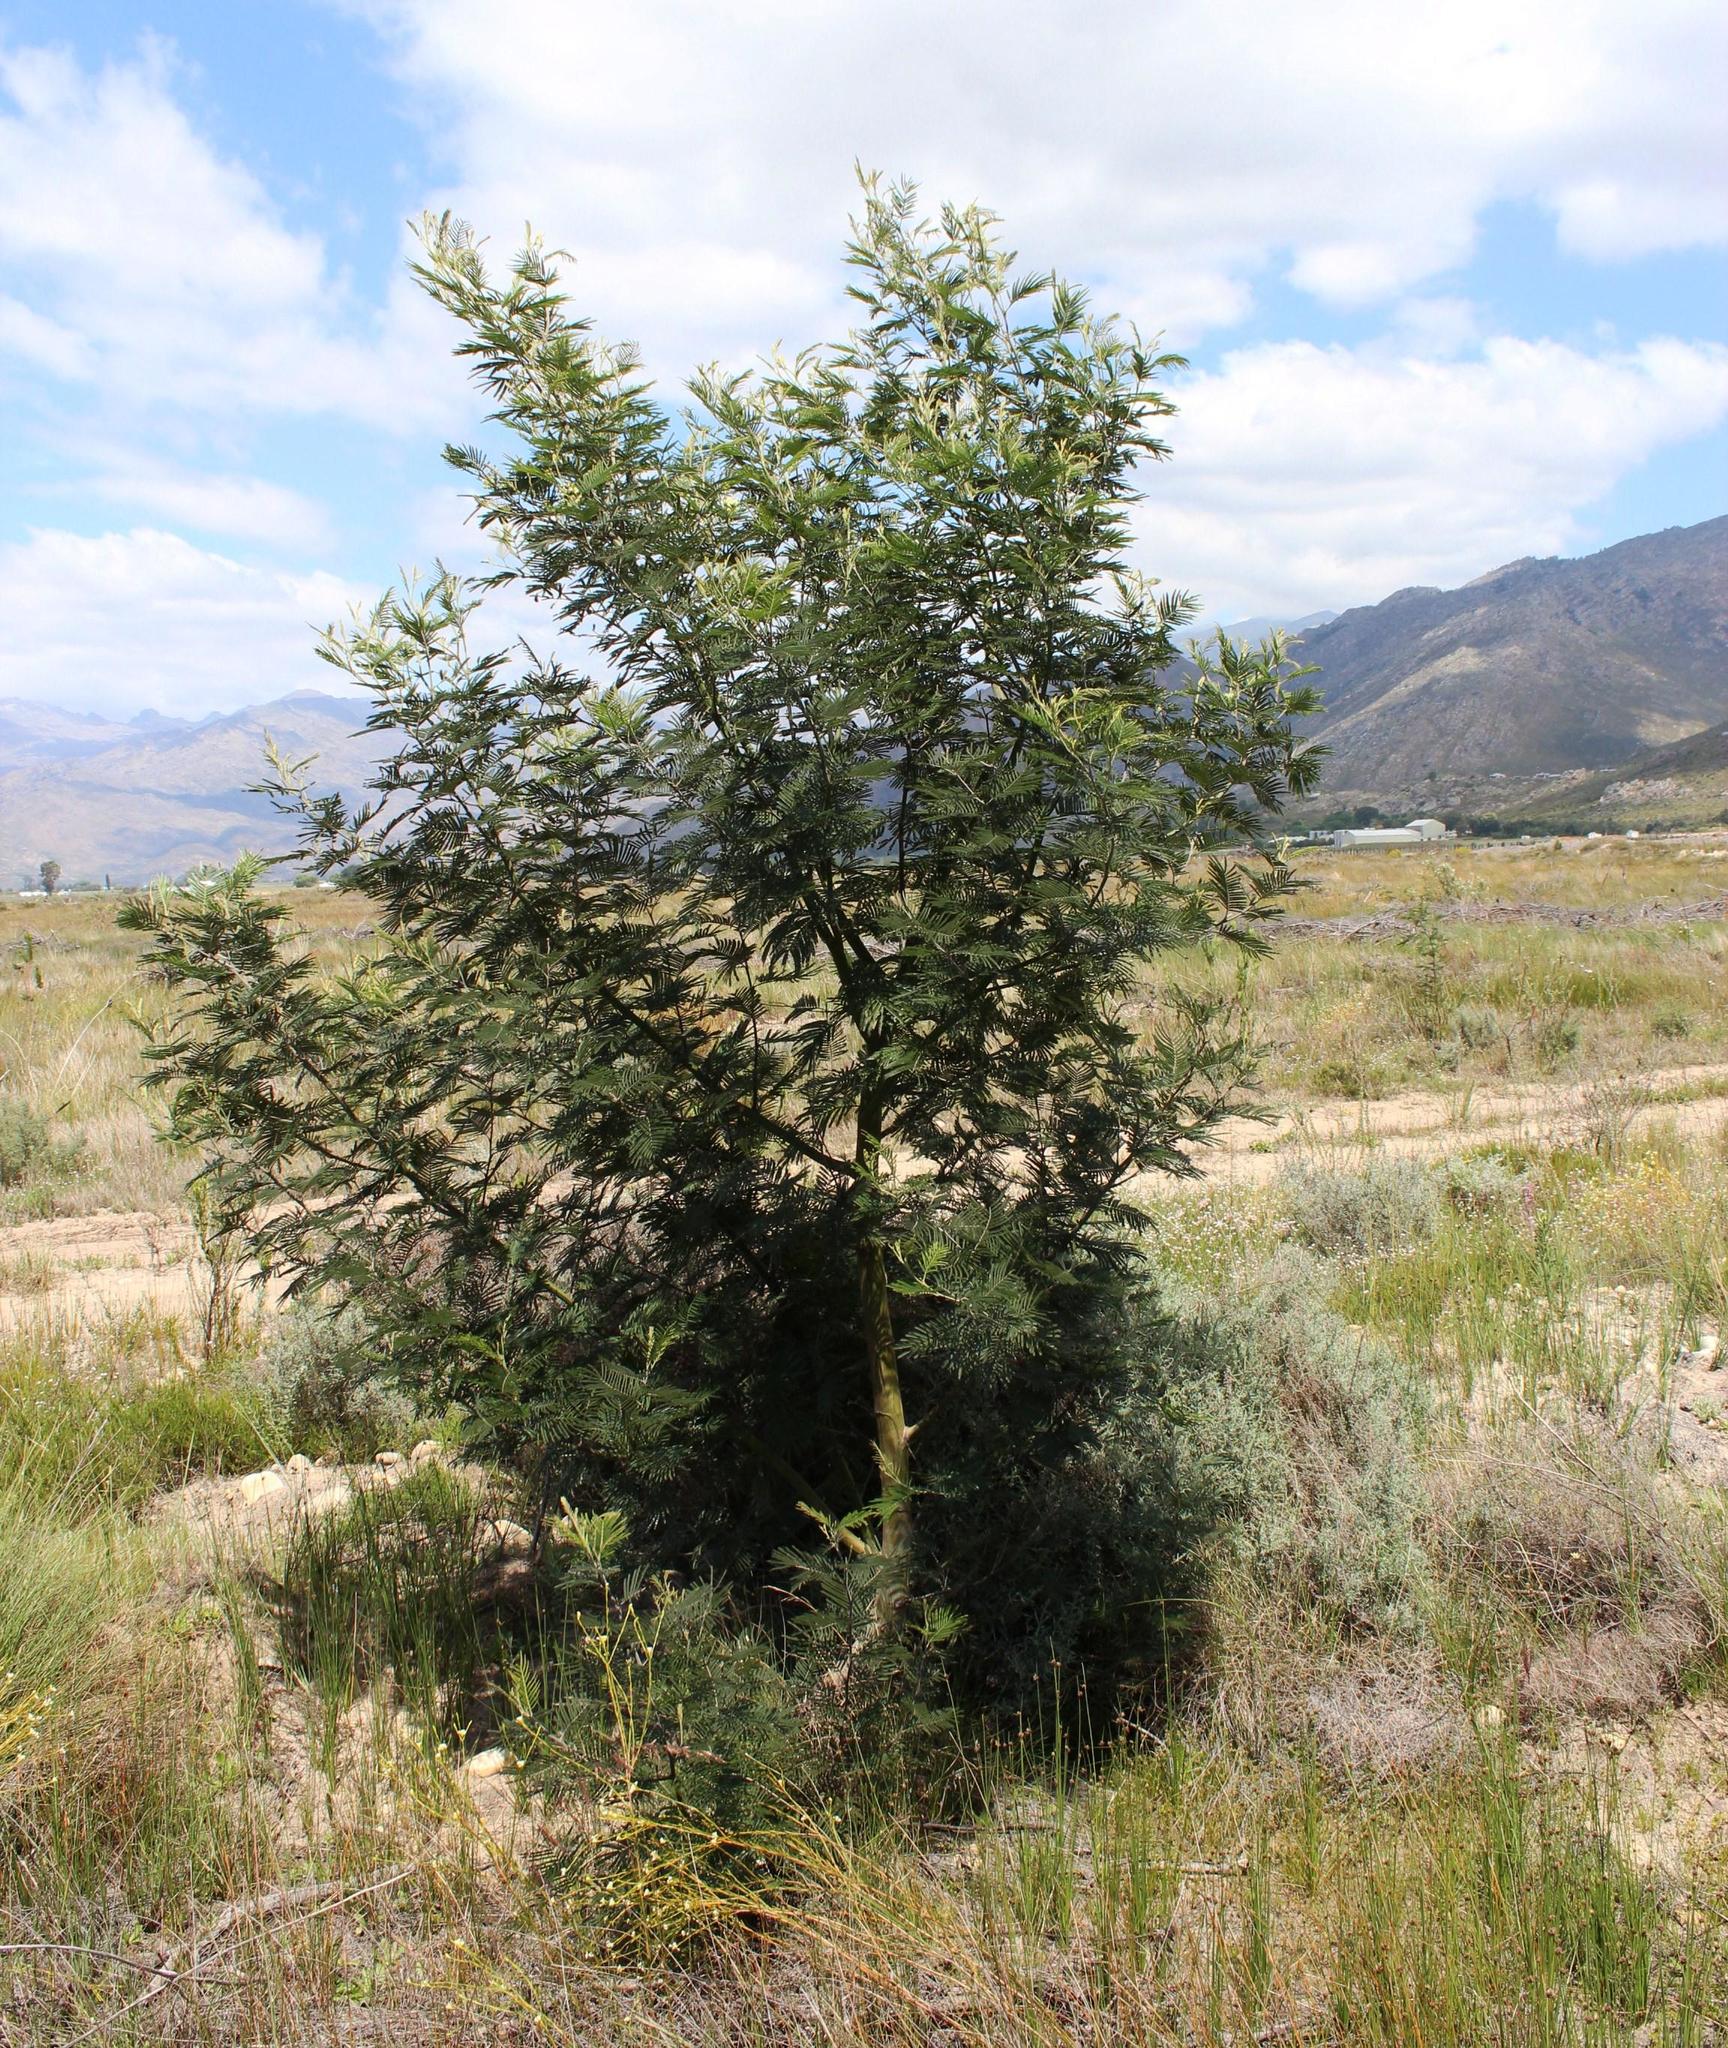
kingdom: Plantae
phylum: Tracheophyta
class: Magnoliopsida
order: Fabales
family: Fabaceae
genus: Acacia
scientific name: Acacia mearnsii
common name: Black wattle
